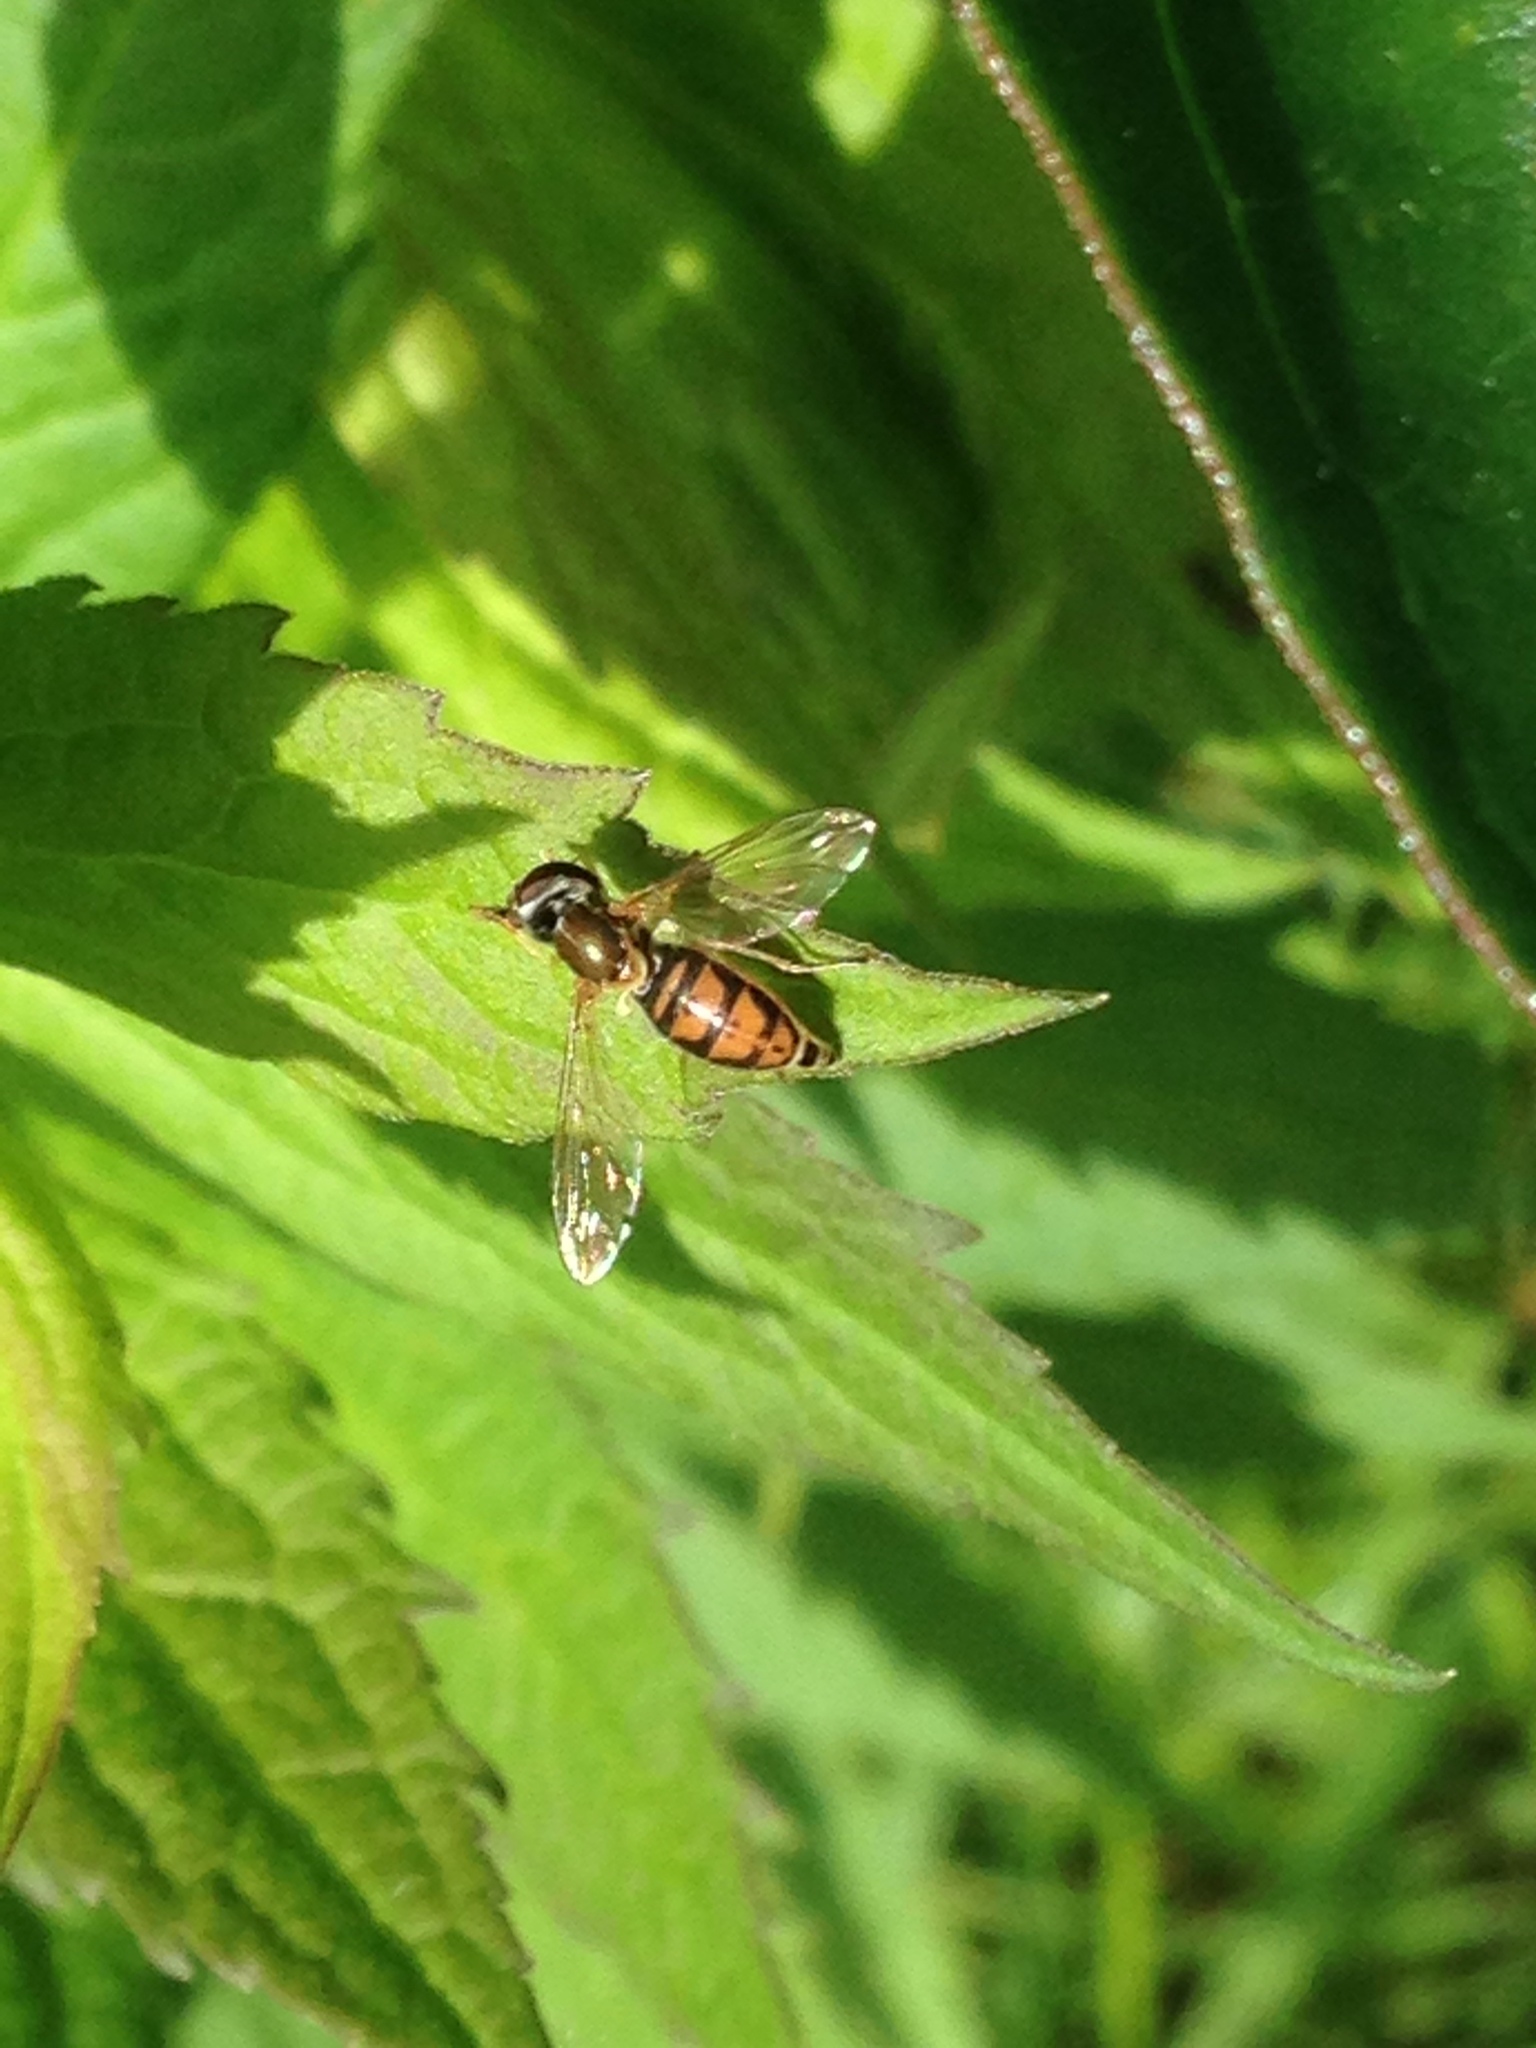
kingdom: Animalia
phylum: Arthropoda
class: Insecta
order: Diptera
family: Syrphidae
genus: Toxomerus
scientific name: Toxomerus marginatus
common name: Syrphid fly
